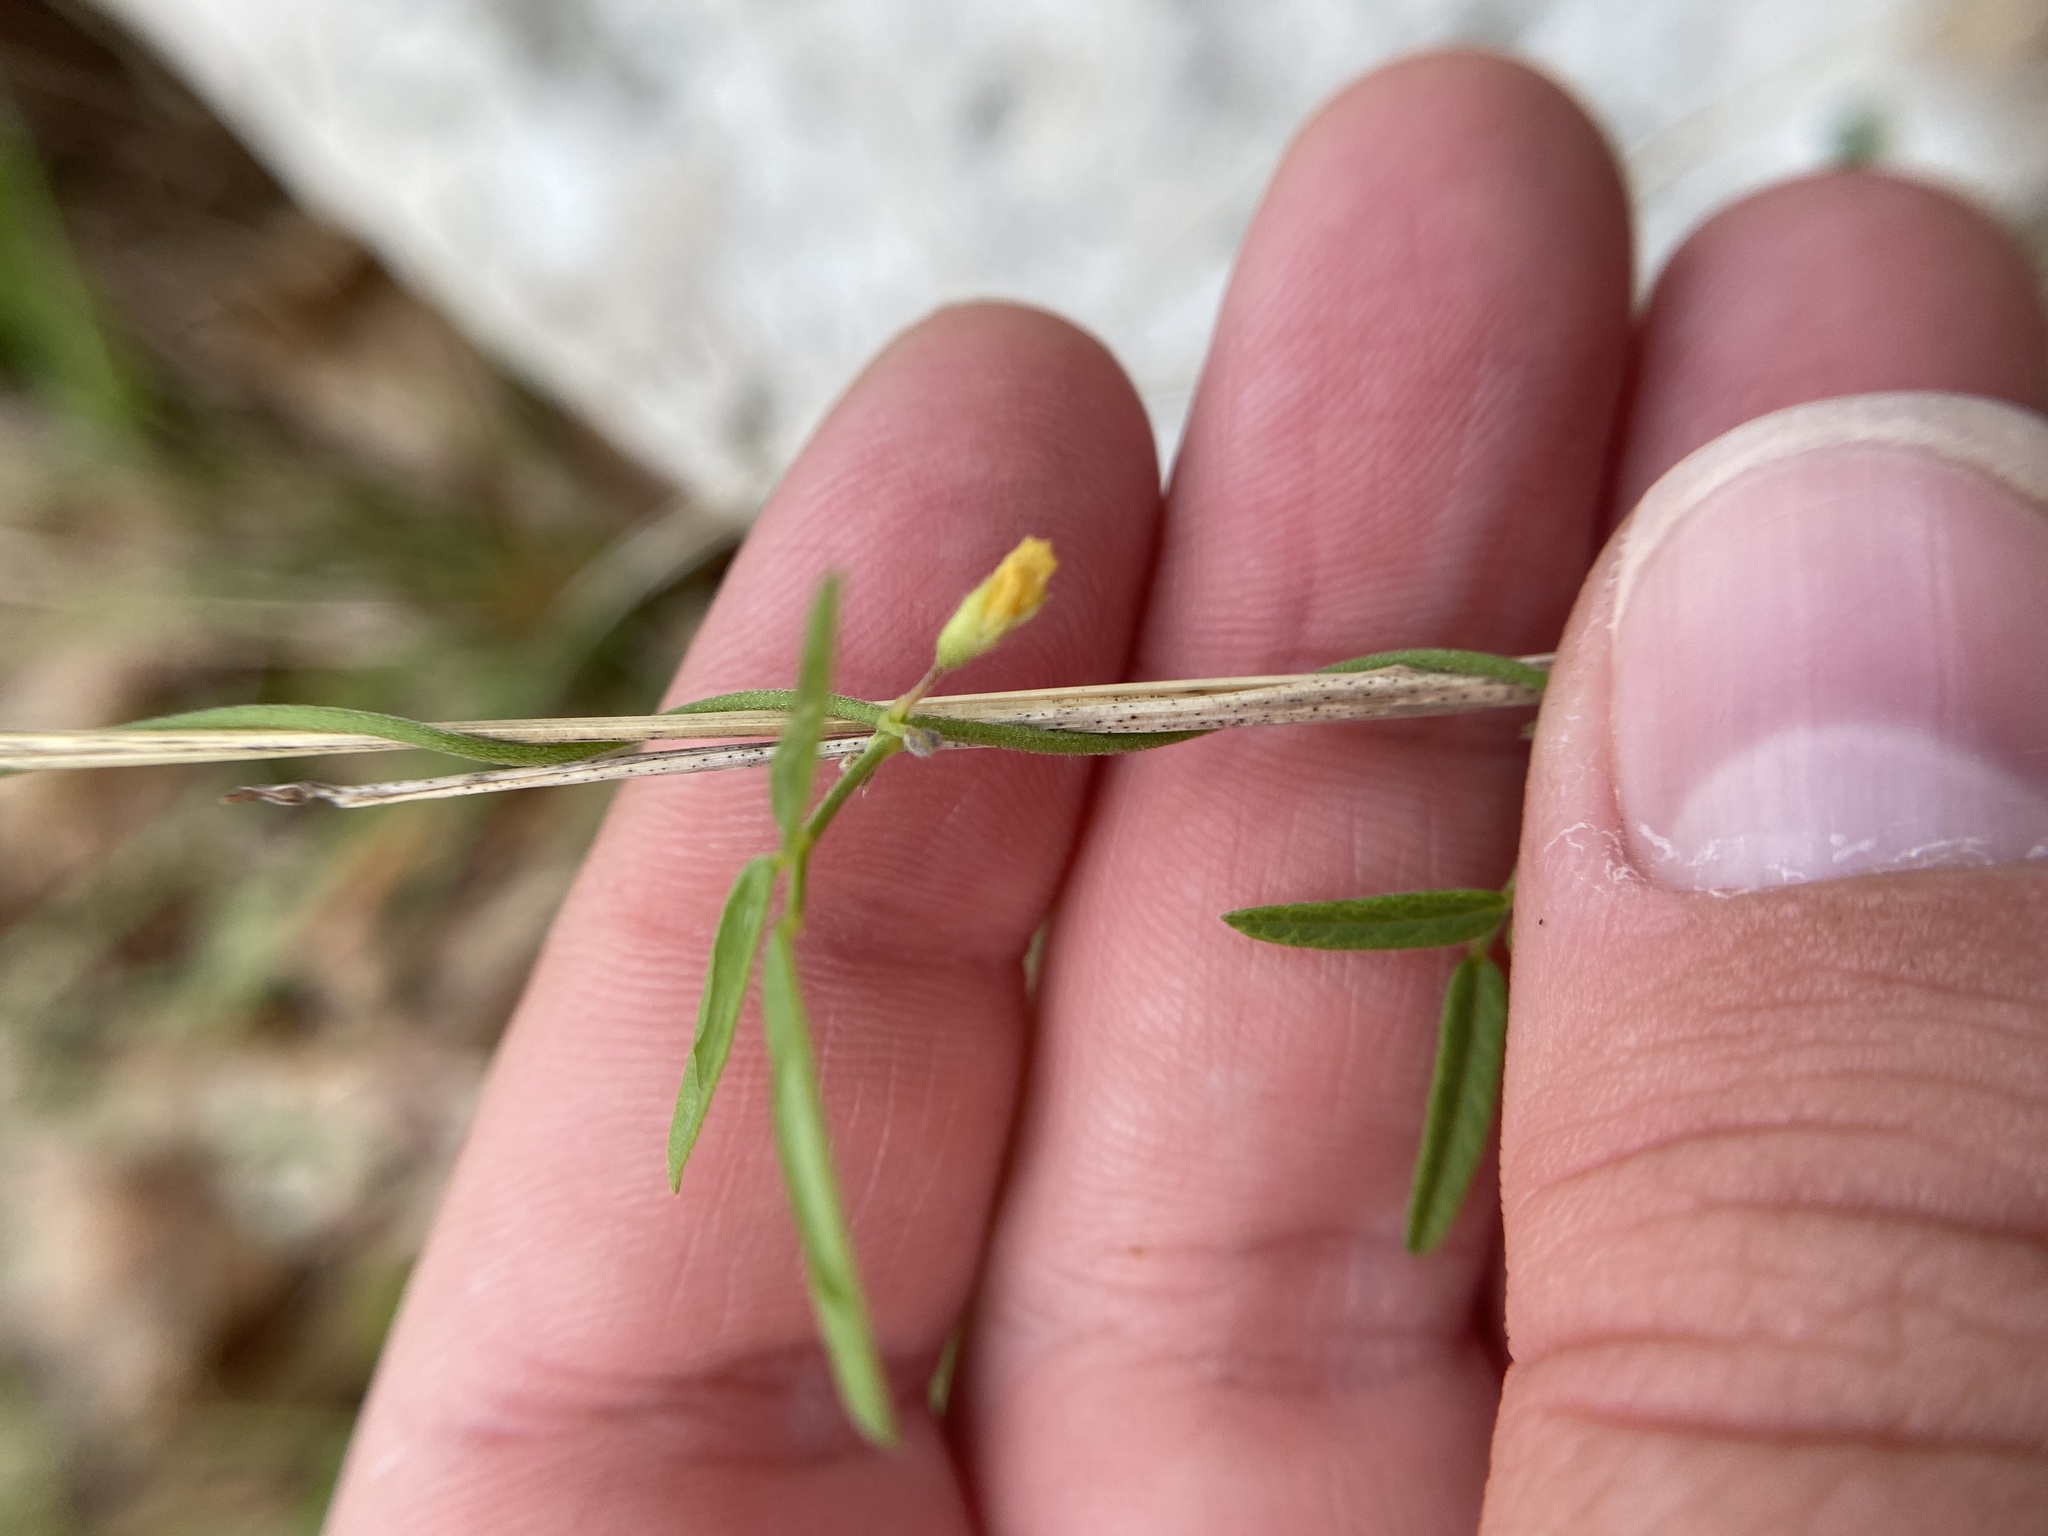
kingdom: Plantae
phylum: Tracheophyta
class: Magnoliopsida
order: Fabales
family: Fabaceae
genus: Rhynchosia
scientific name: Rhynchosia senna
